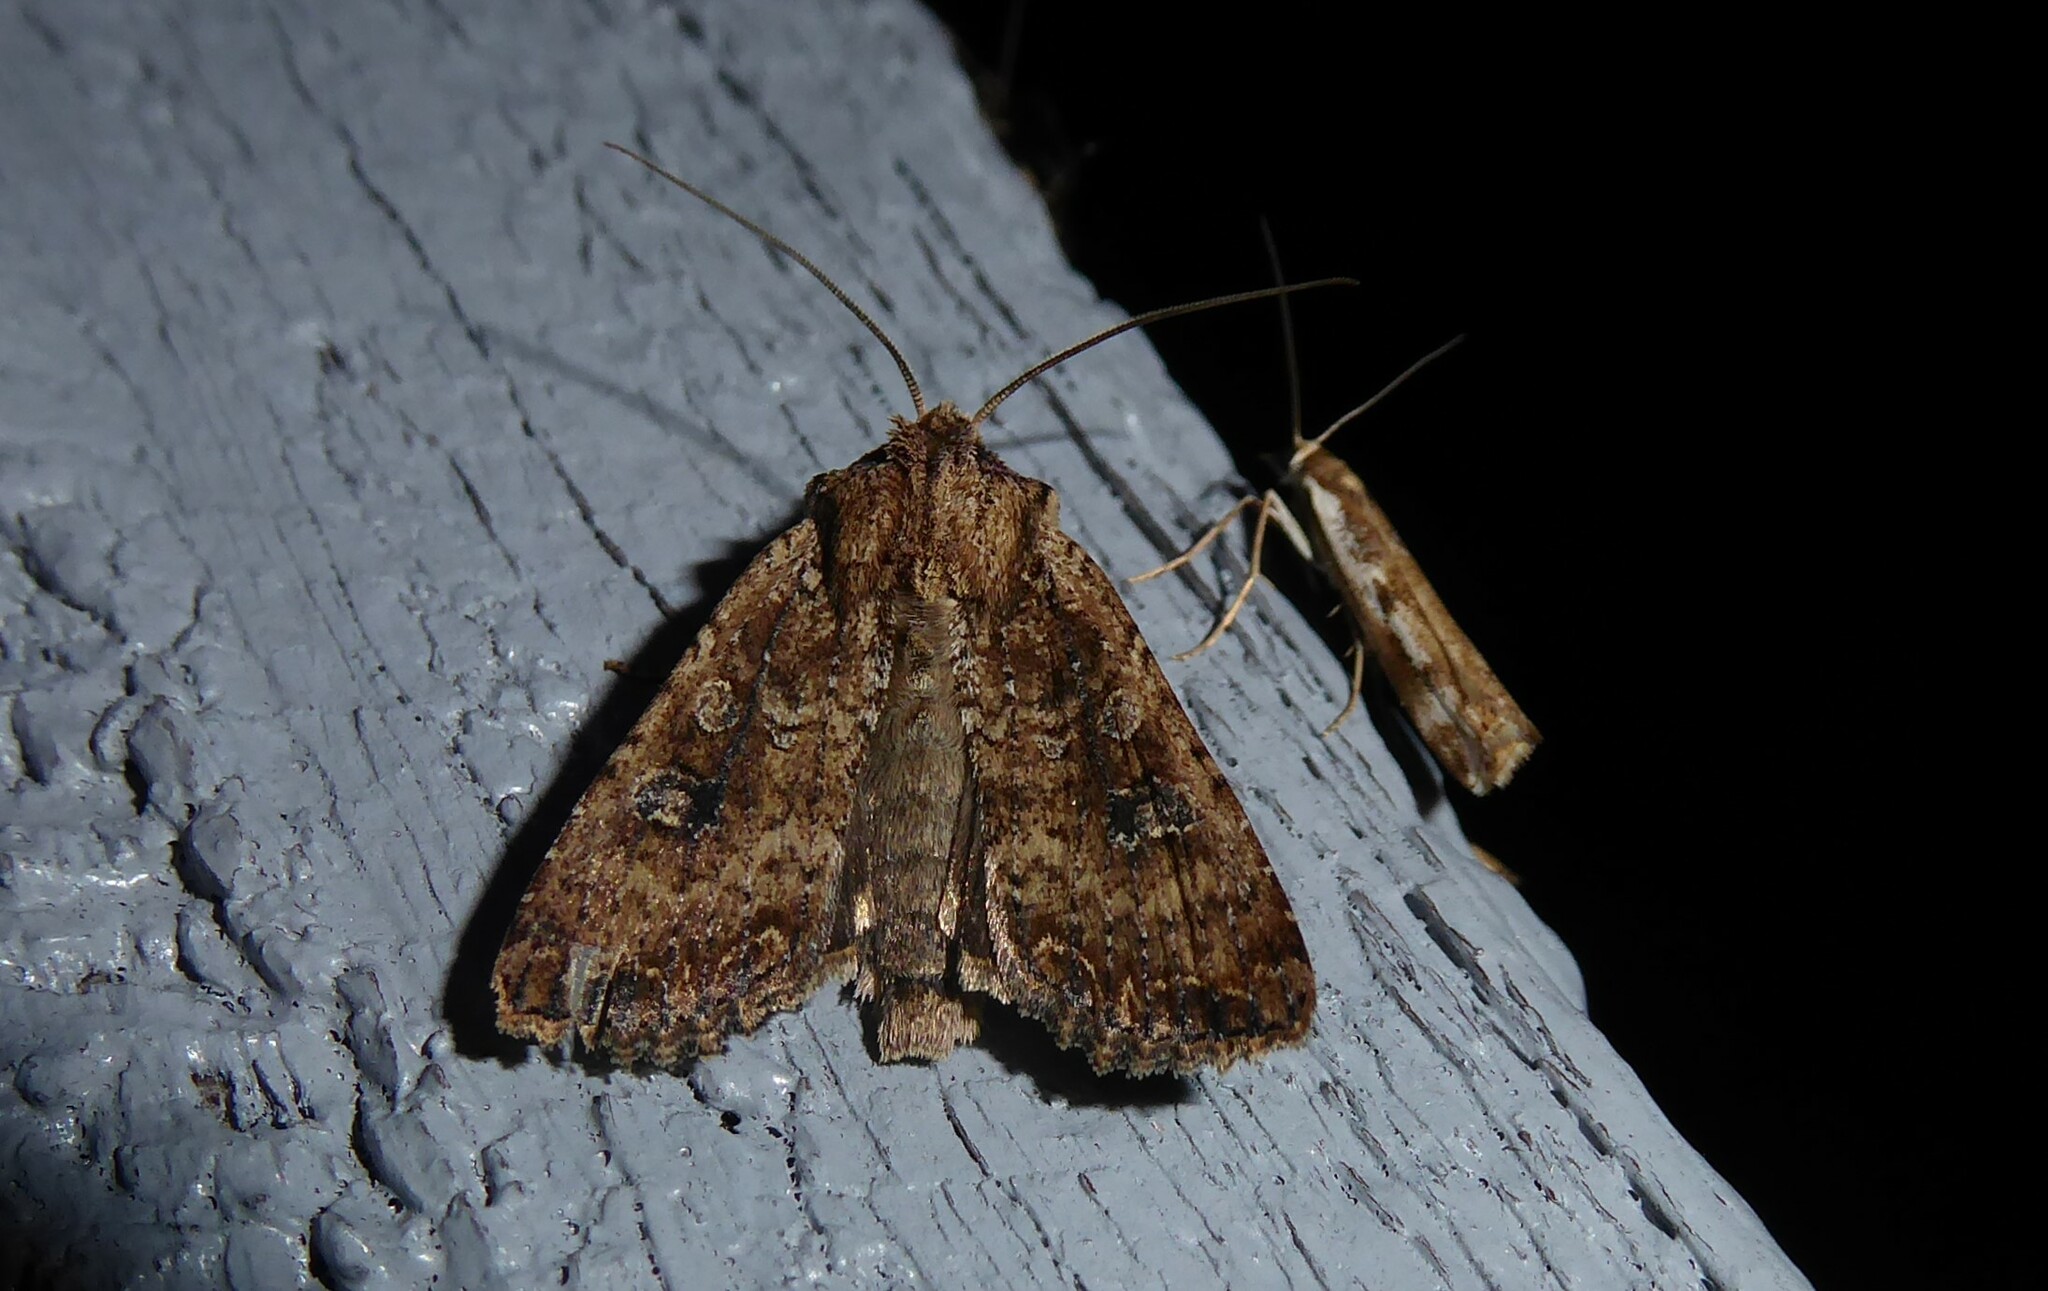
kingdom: Animalia
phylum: Arthropoda
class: Insecta
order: Lepidoptera
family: Noctuidae
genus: Ichneutica
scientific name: Ichneutica morosa
